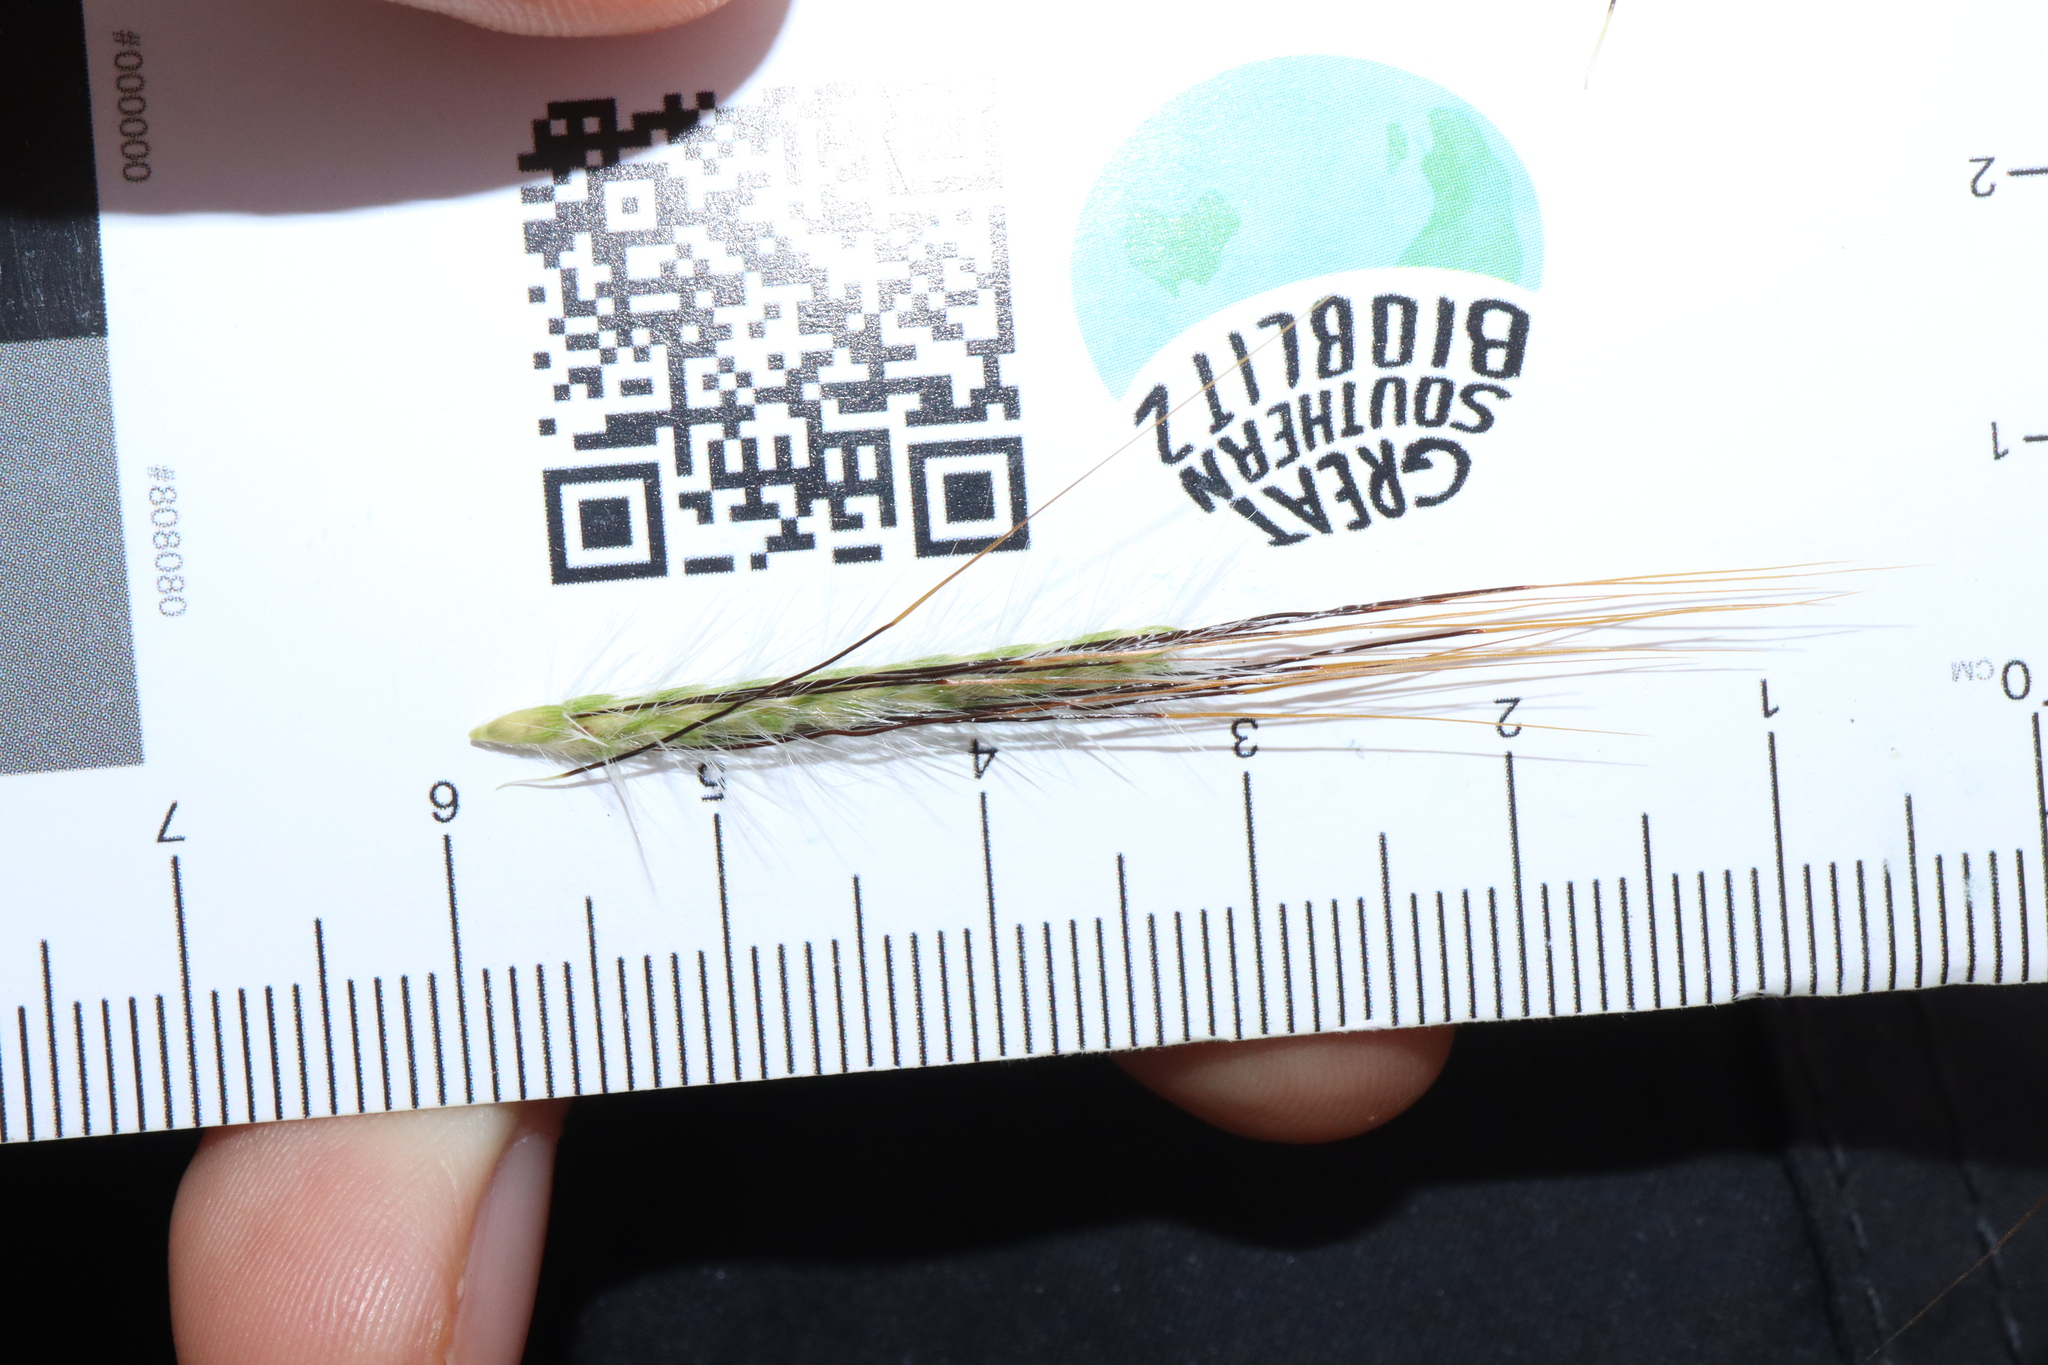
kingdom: Plantae
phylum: Tracheophyta
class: Liliopsida
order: Poales
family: Poaceae
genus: Dichanthium
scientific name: Dichanthium sericeum
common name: Silky bluestem
